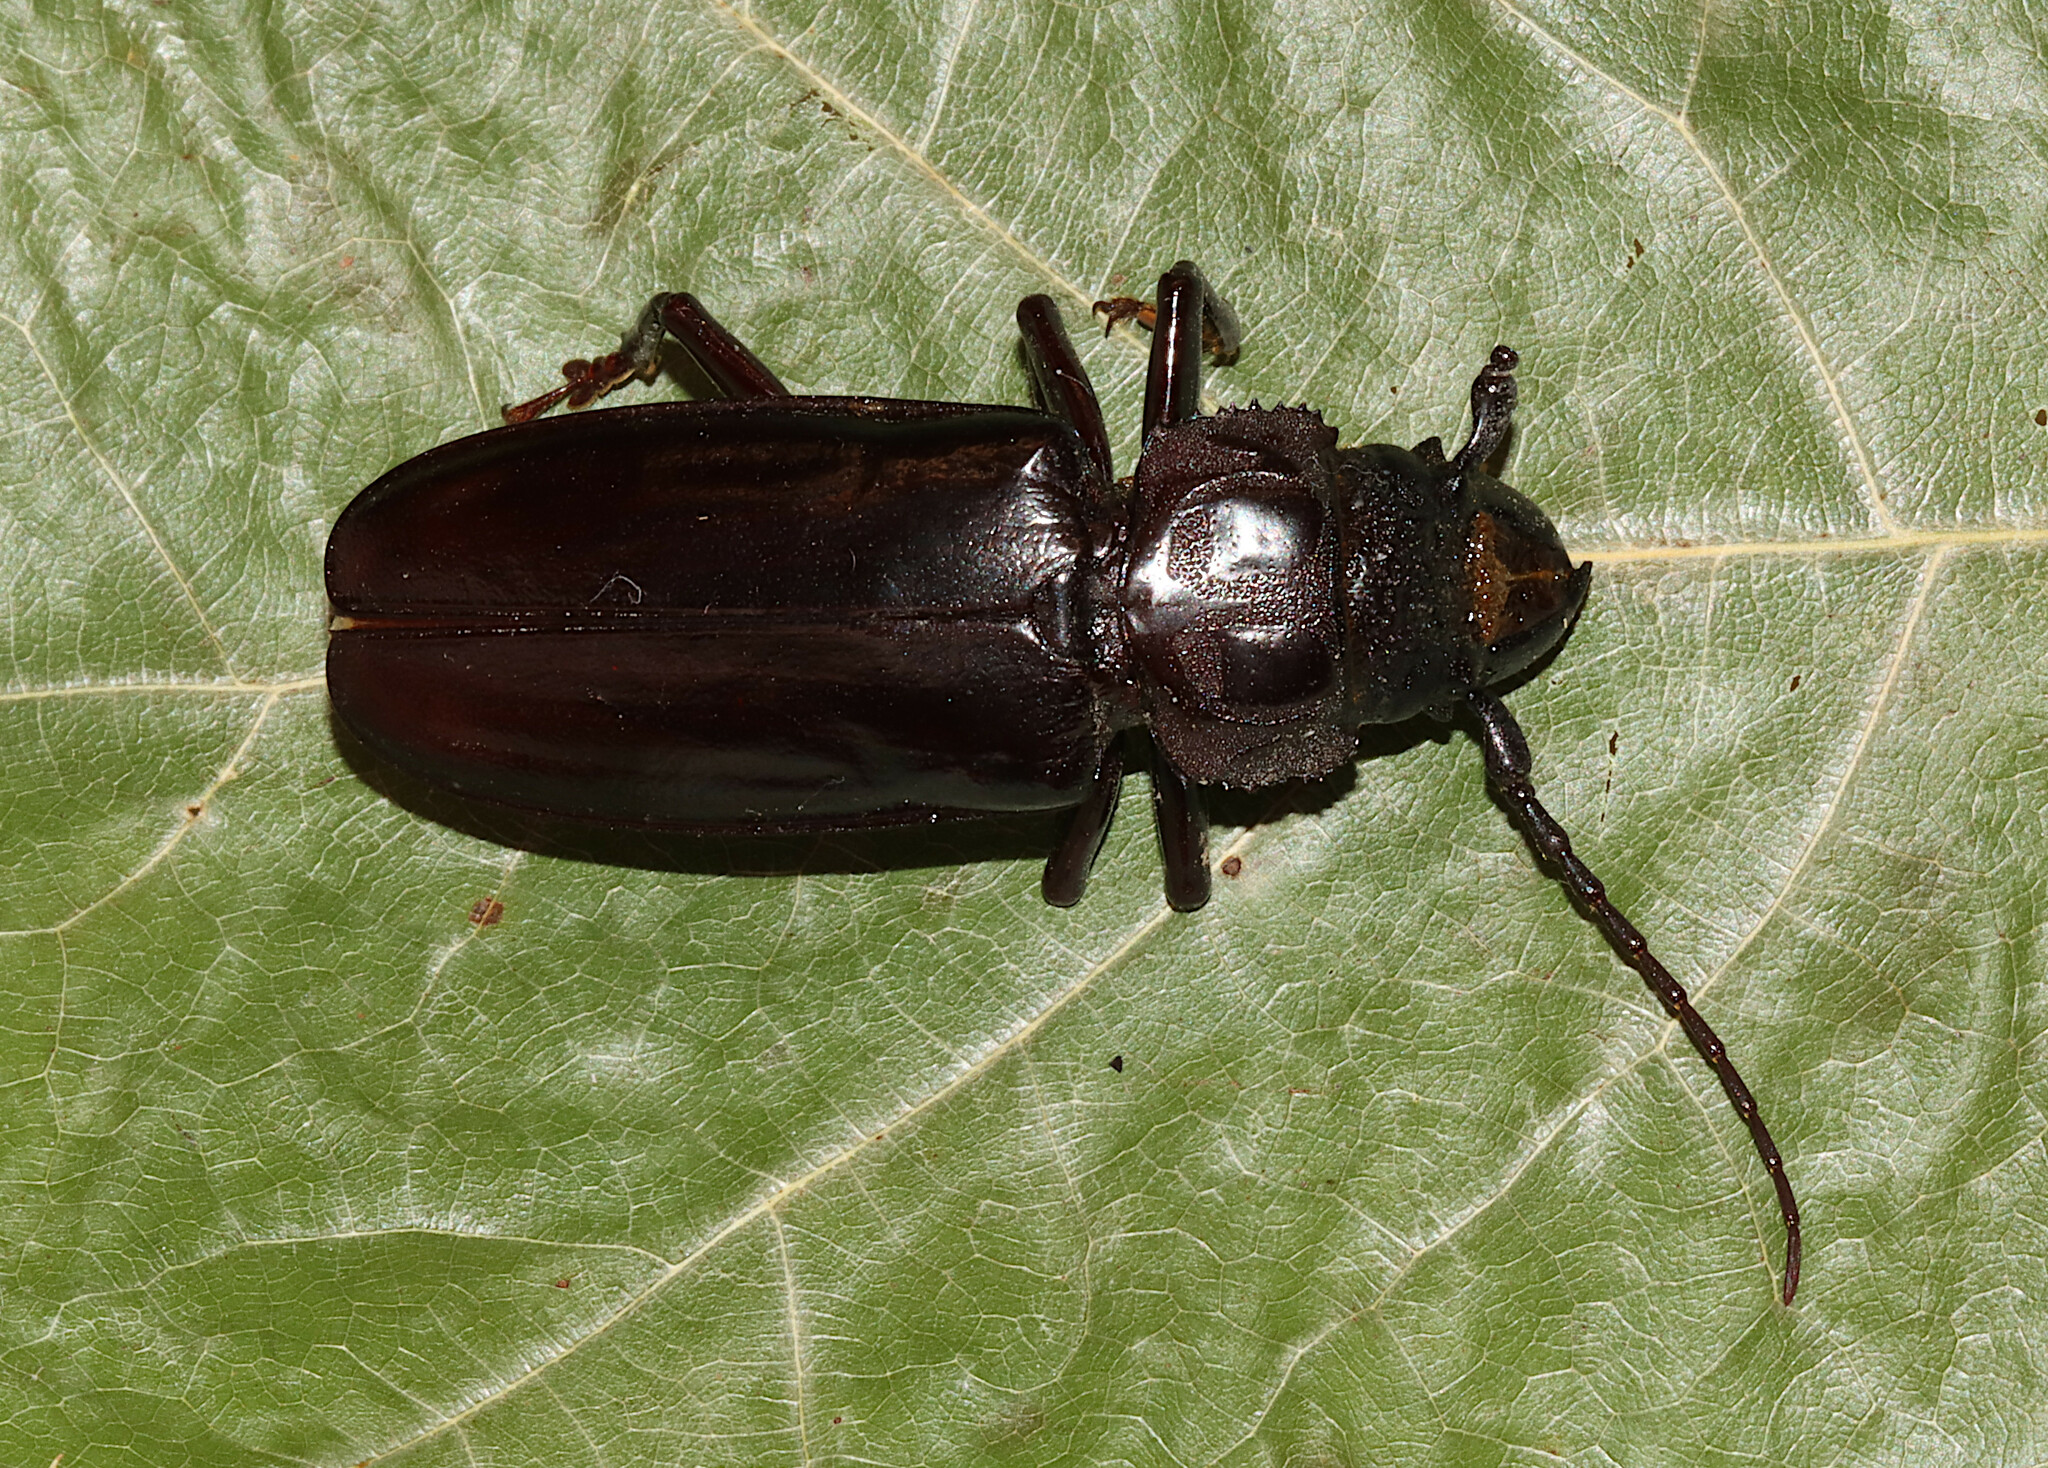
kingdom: Animalia
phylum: Arthropoda
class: Insecta
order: Coleoptera
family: Cerambycidae
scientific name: Cerambycidae
